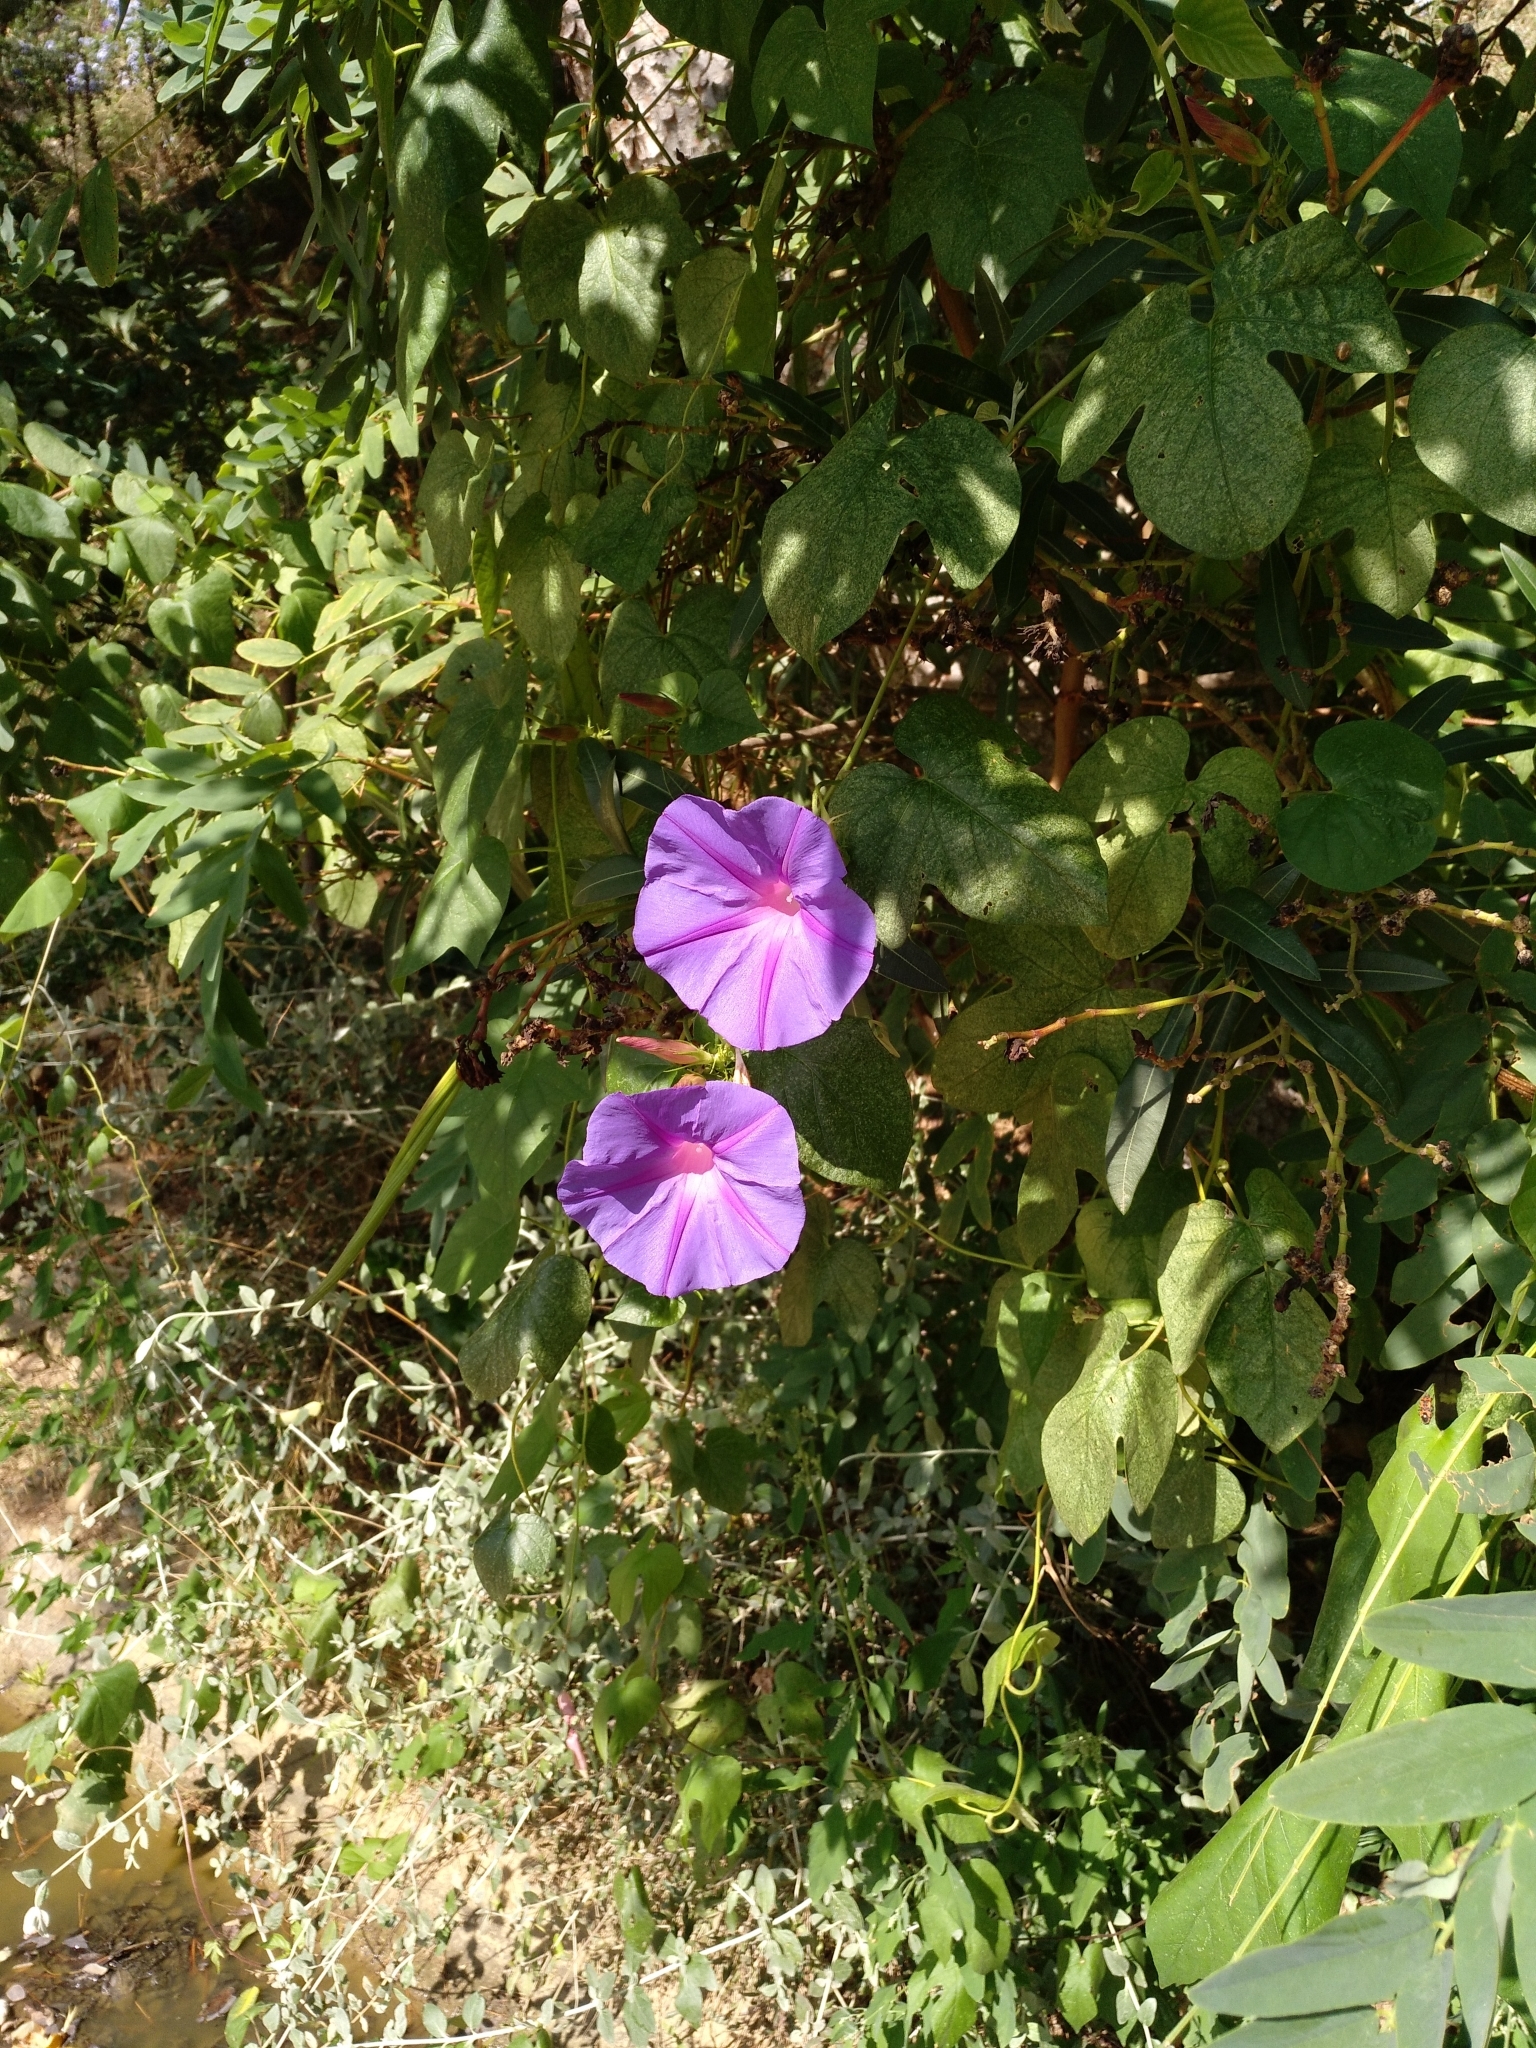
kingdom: Plantae
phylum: Tracheophyta
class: Magnoliopsida
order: Solanales
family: Convolvulaceae
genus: Ipomoea
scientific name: Ipomoea indica
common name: Blue dawnflower
